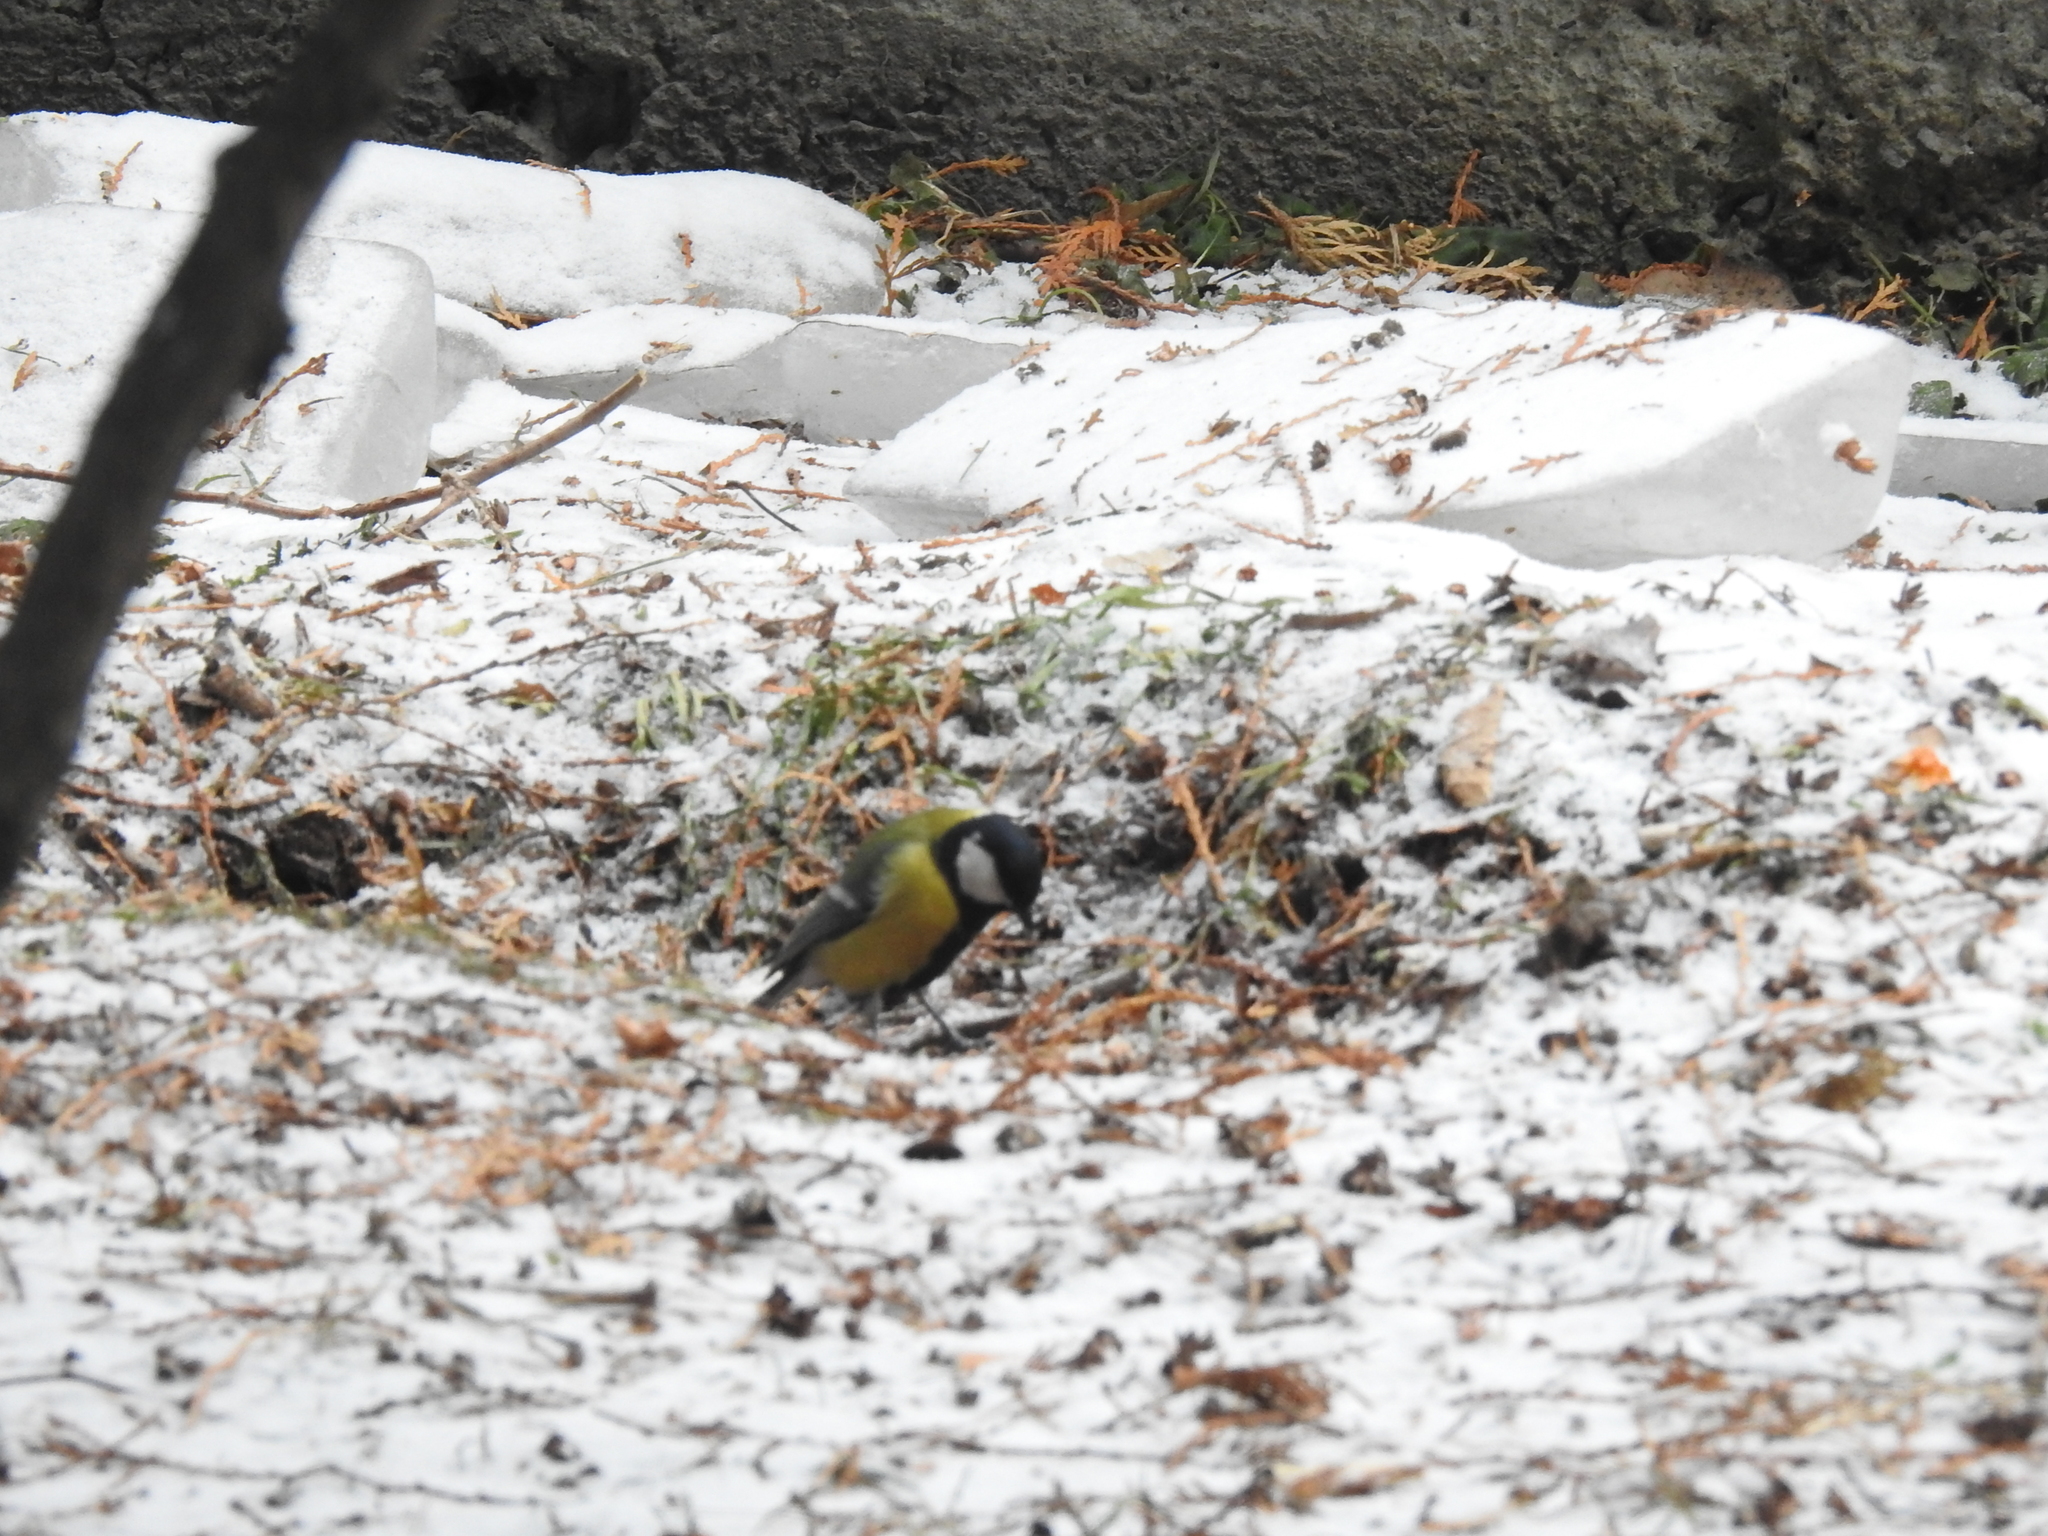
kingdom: Animalia
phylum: Chordata
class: Aves
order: Passeriformes
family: Paridae
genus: Parus
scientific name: Parus major
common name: Great tit
